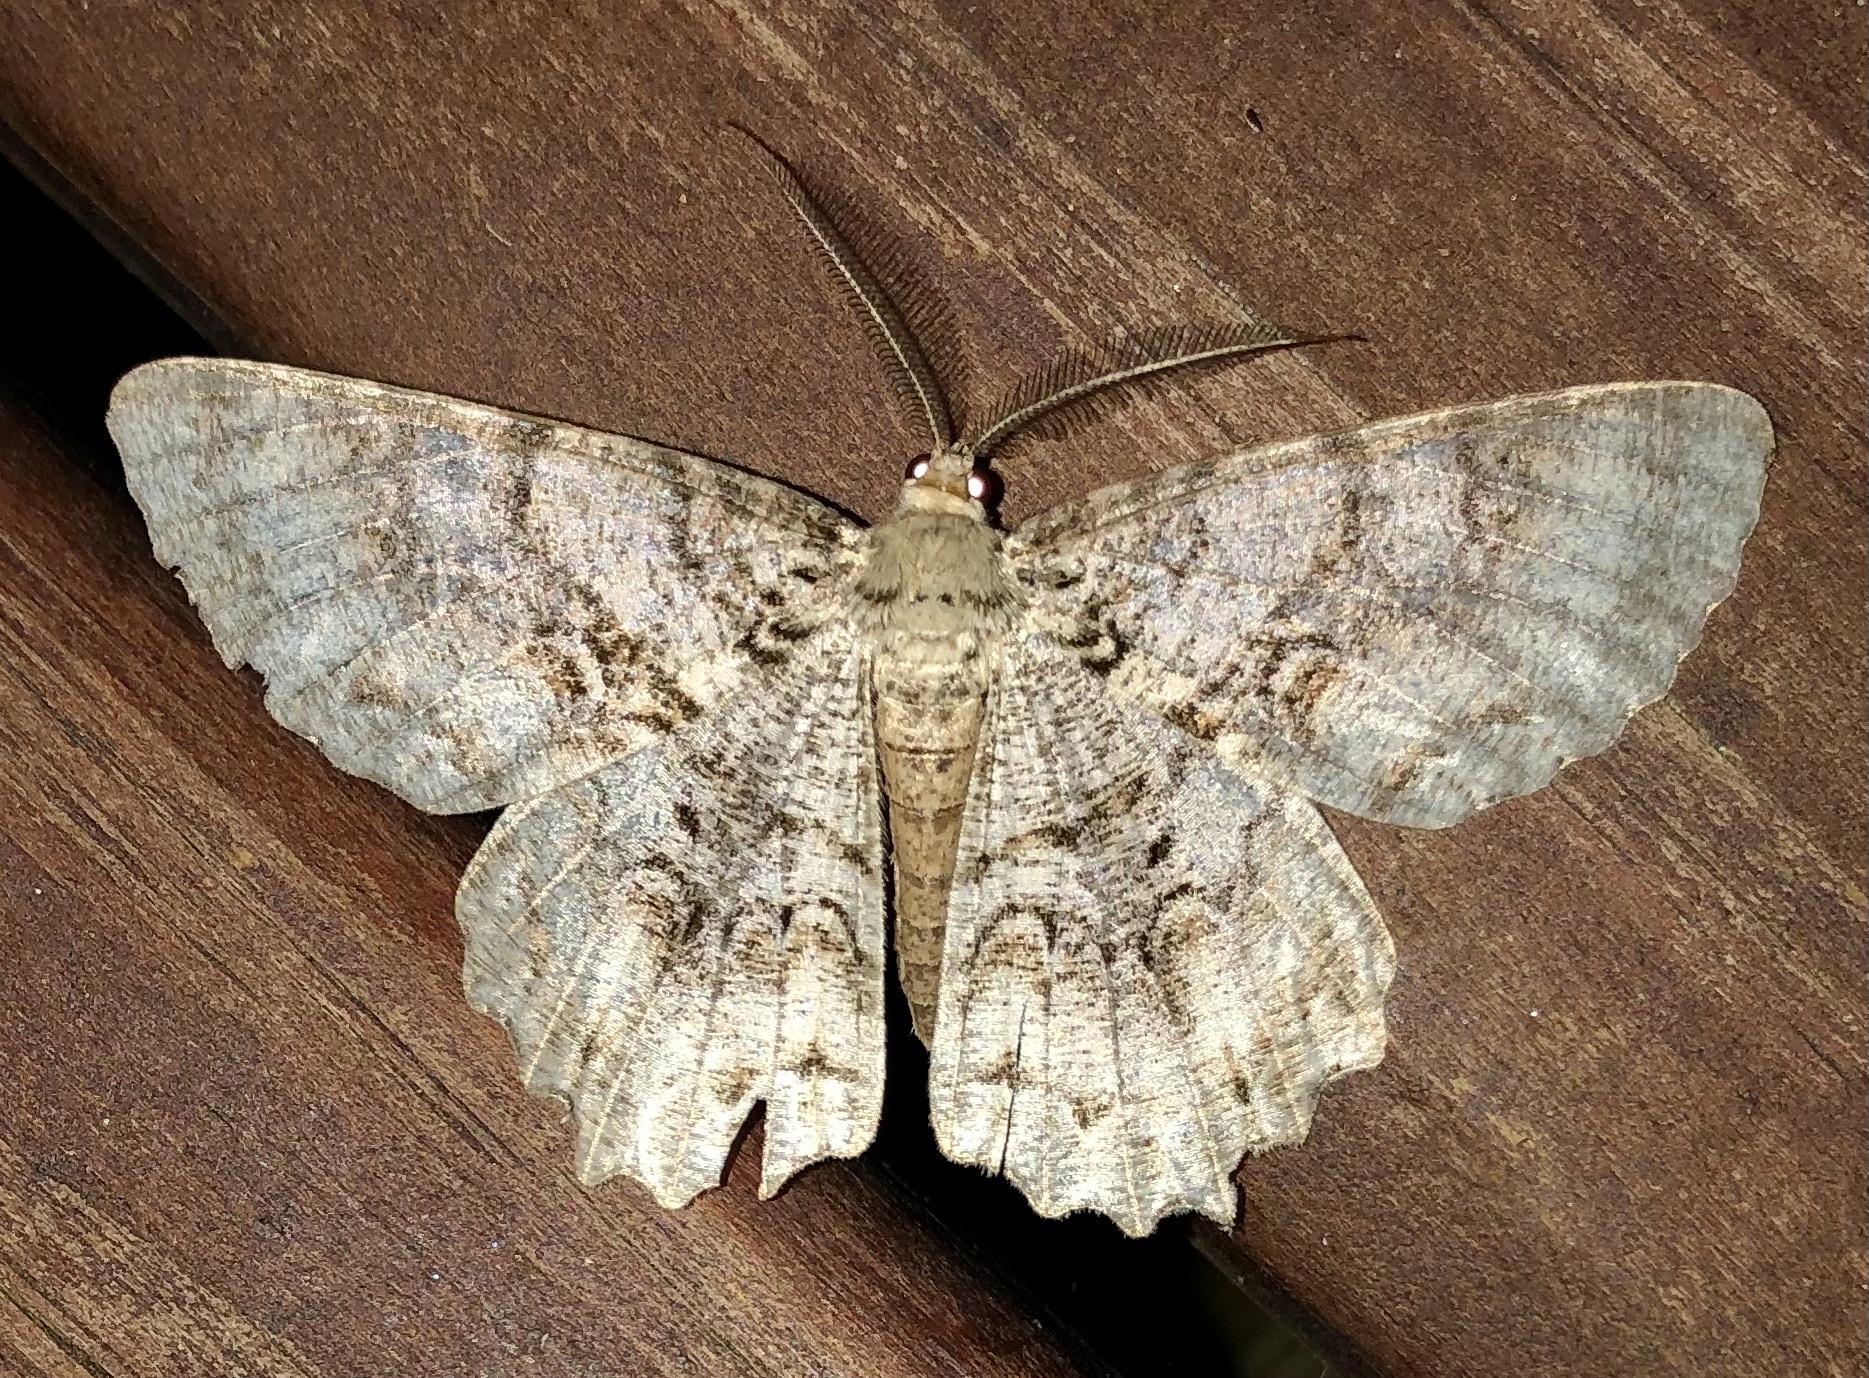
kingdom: Animalia
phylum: Arthropoda
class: Insecta
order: Lepidoptera
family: Geometridae
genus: Epimecis
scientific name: Epimecis hortaria
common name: Tulip-tree beauty
